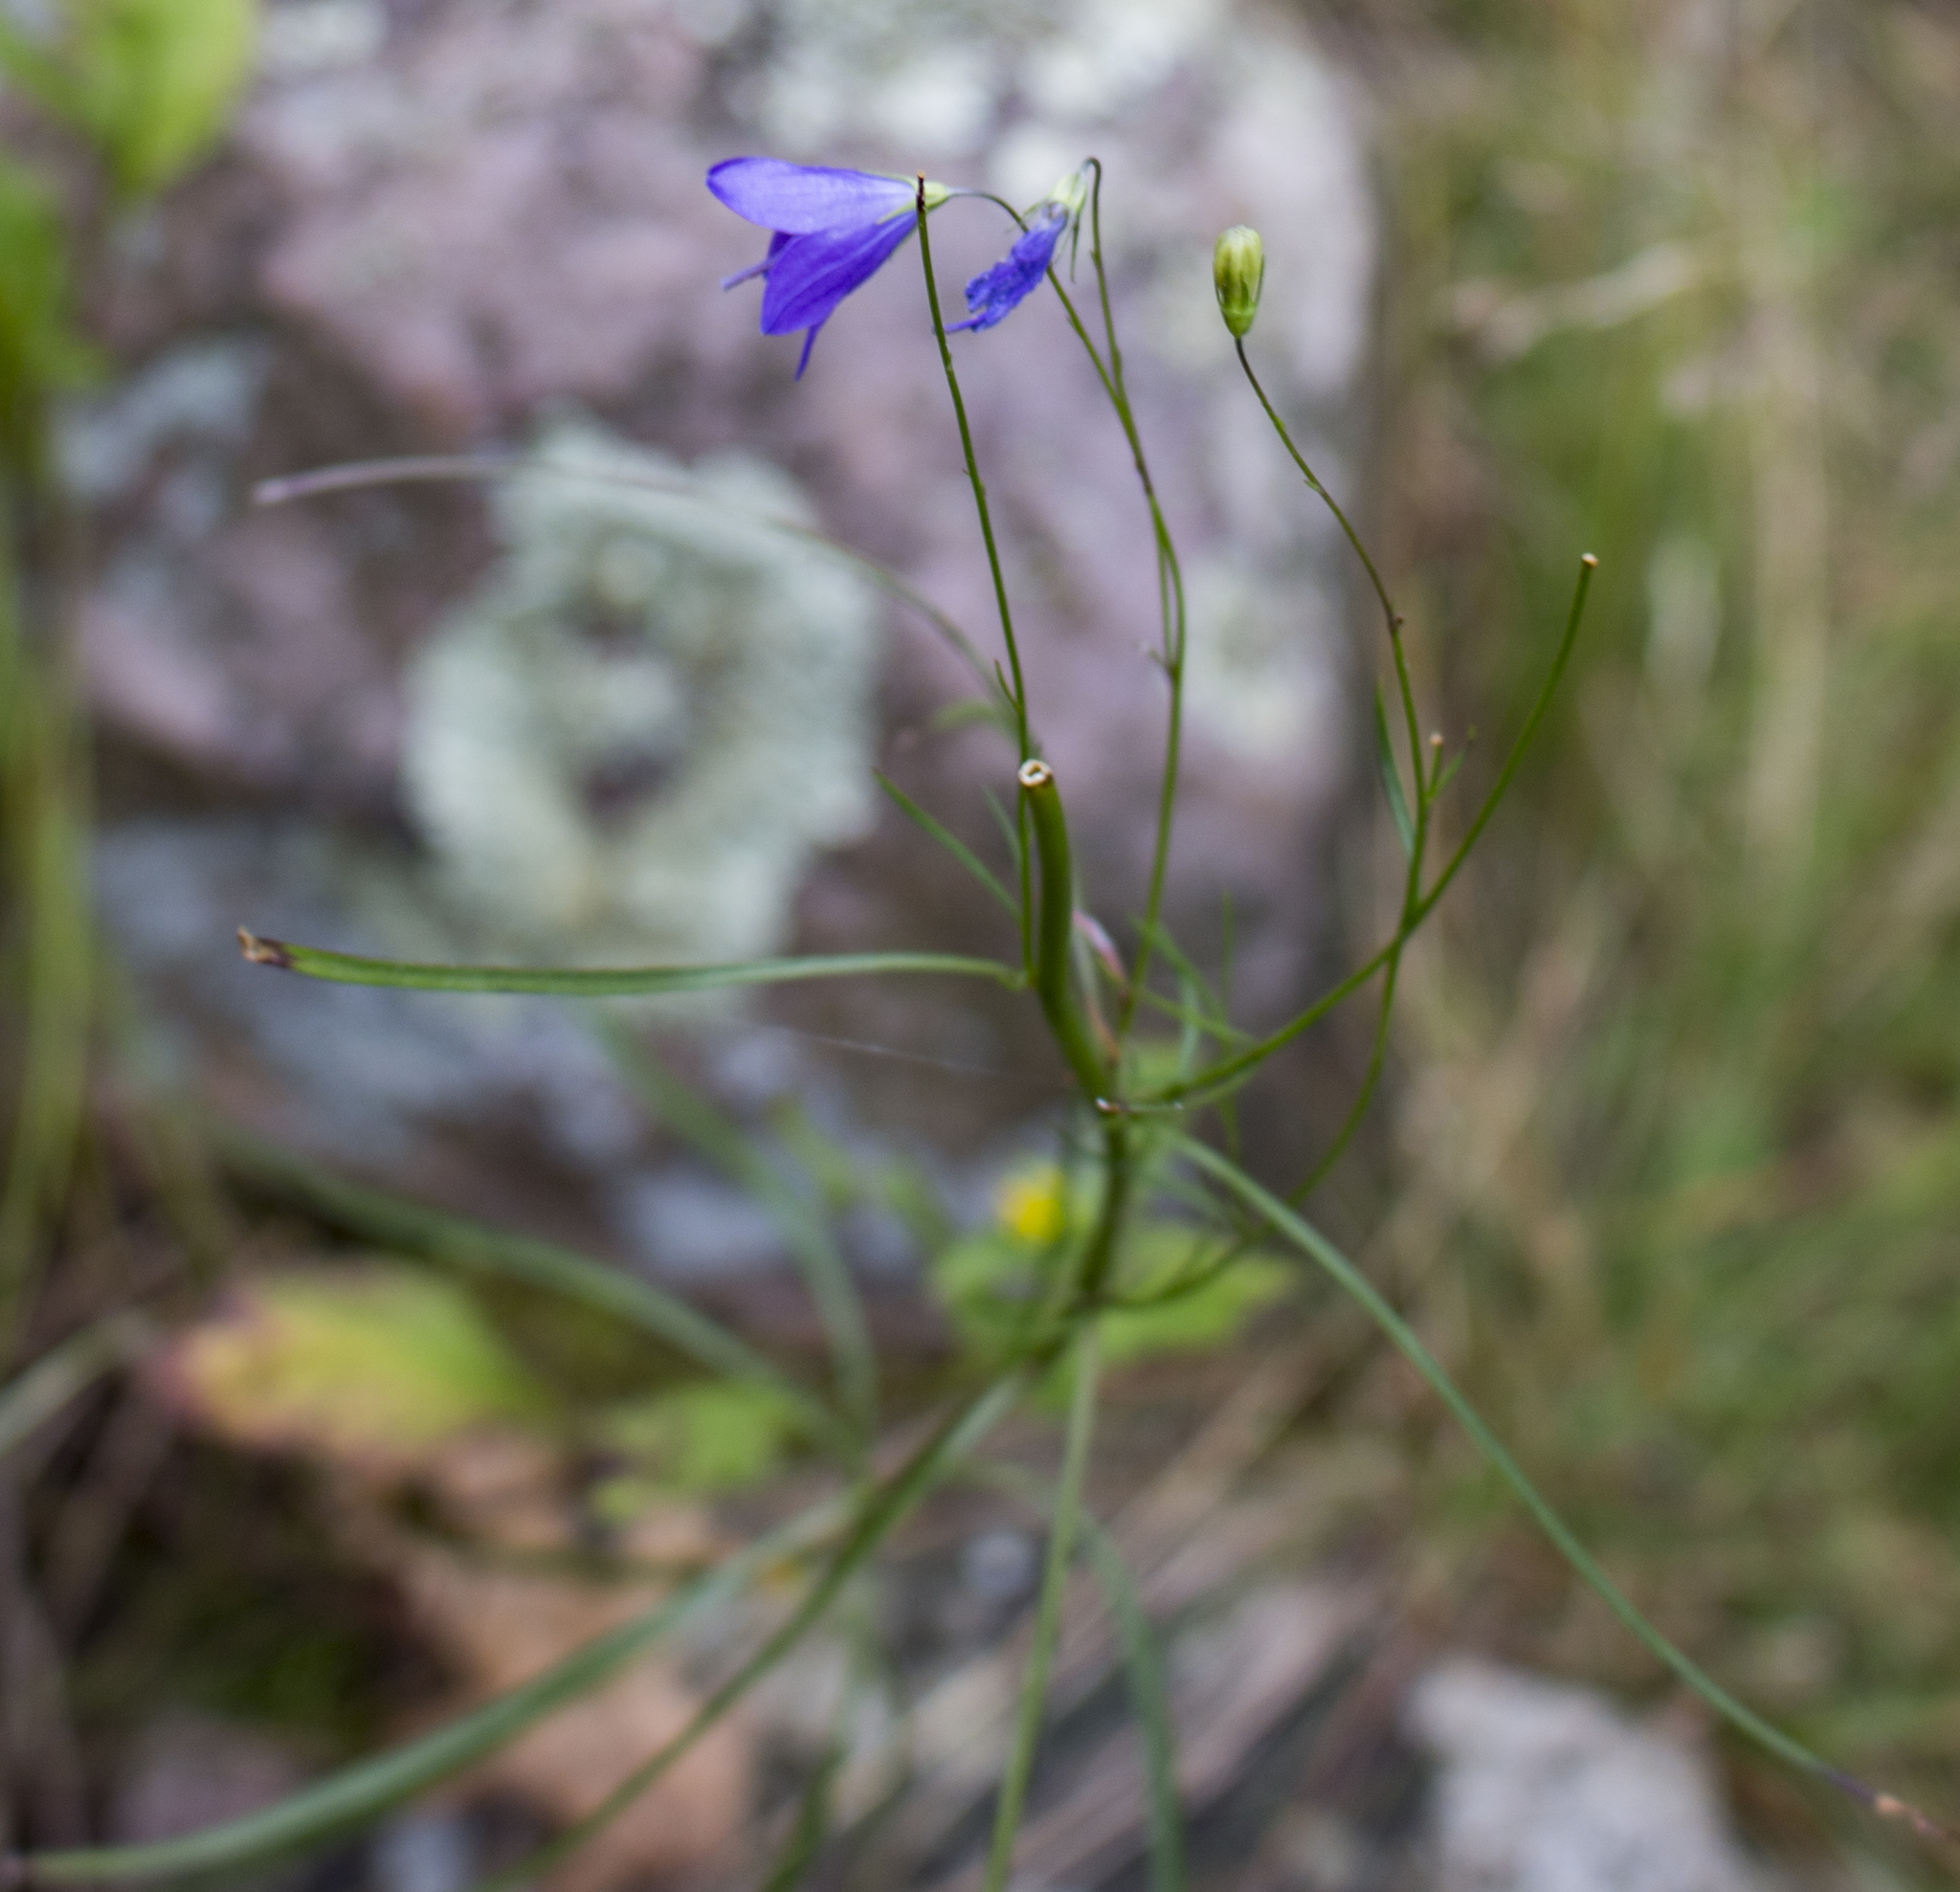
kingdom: Plantae
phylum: Tracheophyta
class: Magnoliopsida
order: Asterales
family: Campanulaceae
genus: Campanula
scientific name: Campanula intercedens
